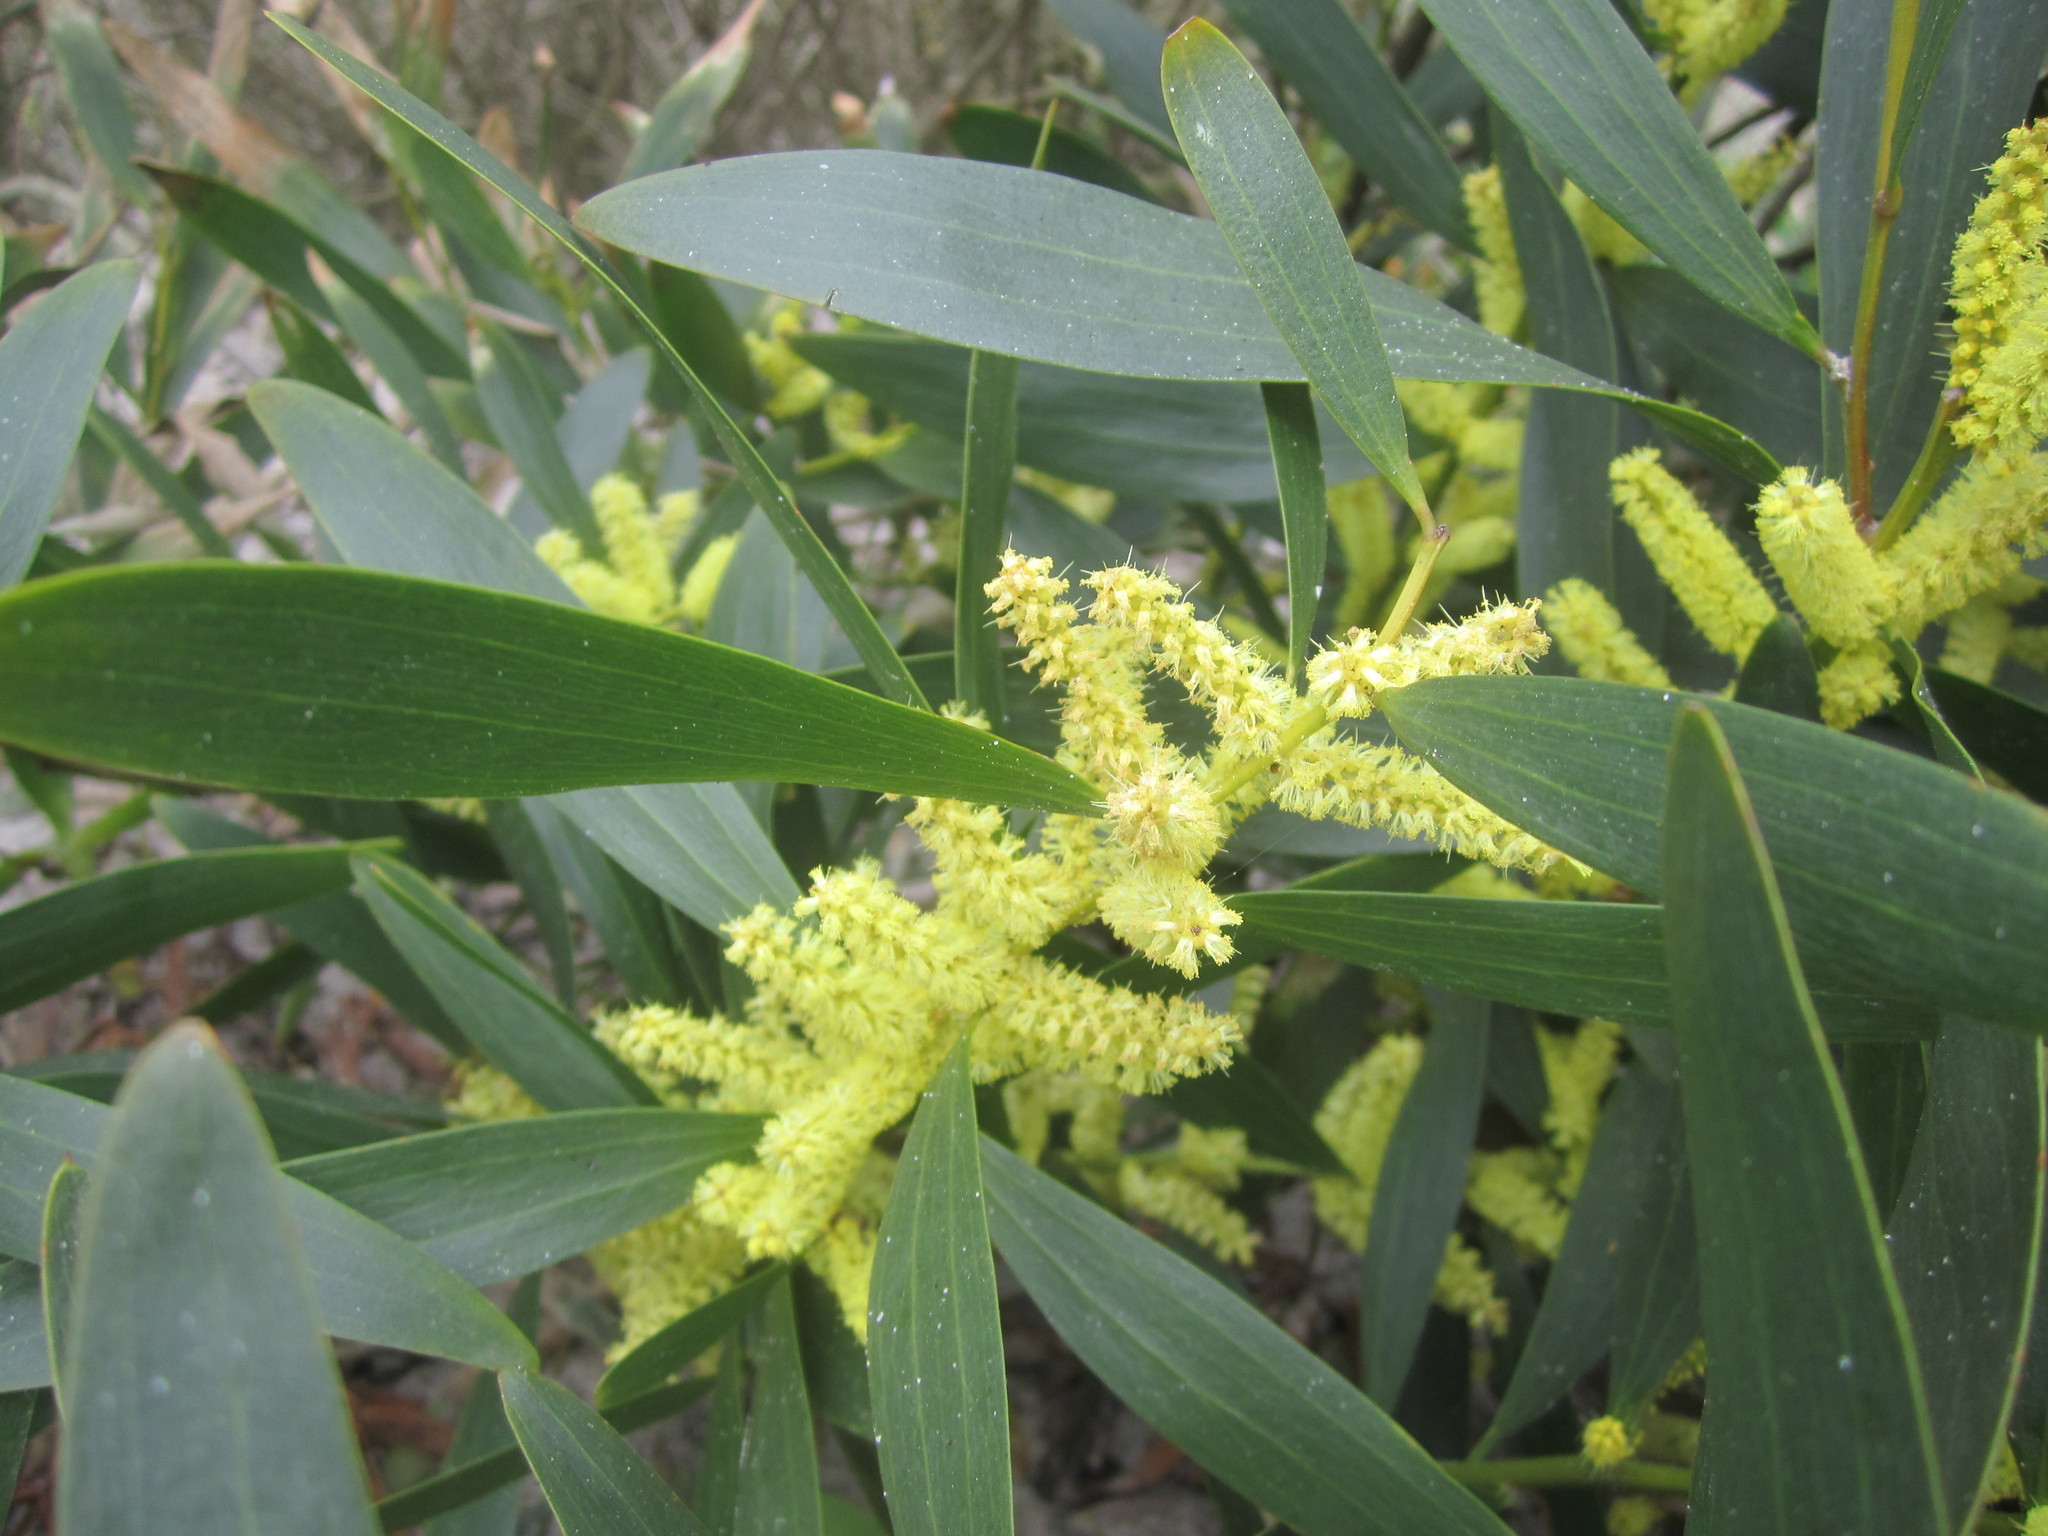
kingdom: Plantae
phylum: Tracheophyta
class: Magnoliopsida
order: Fabales
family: Fabaceae
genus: Acacia
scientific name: Acacia longifolia
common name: Sydney golden wattle
